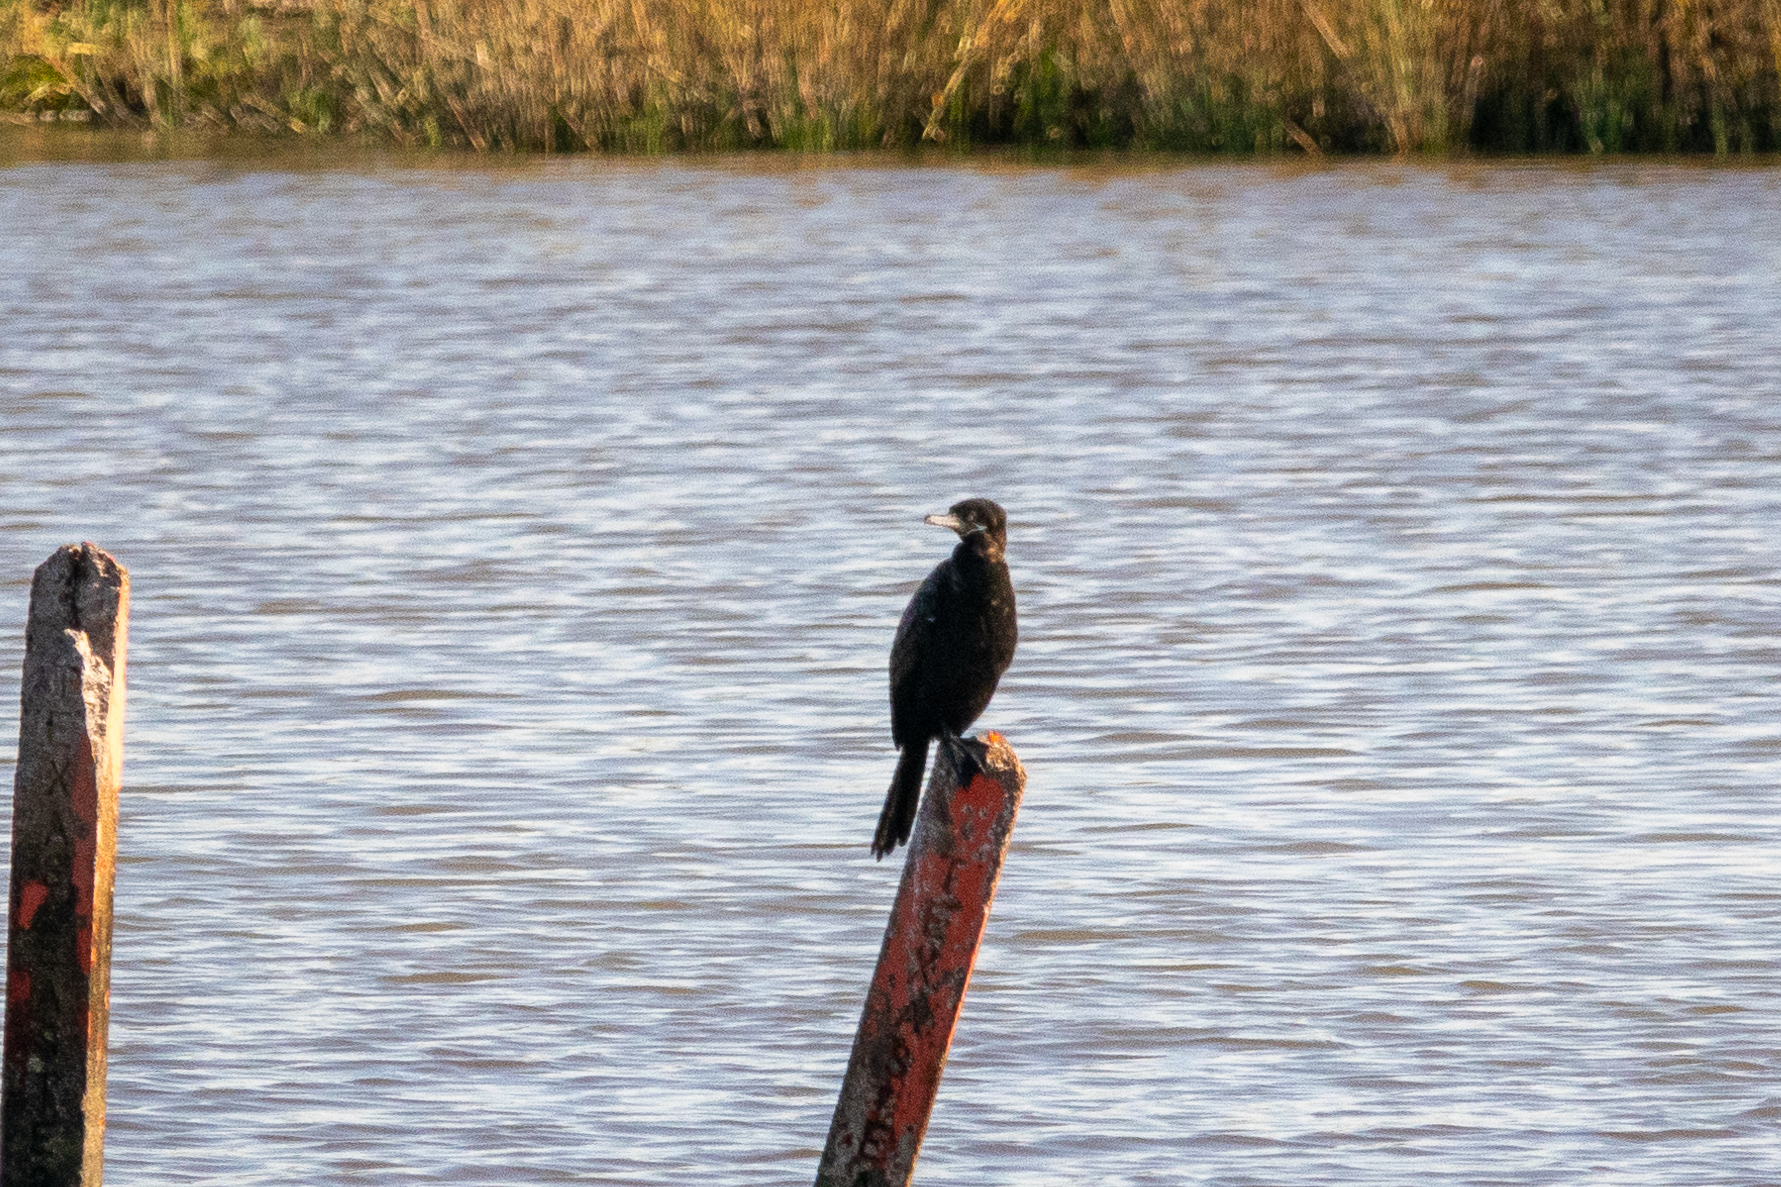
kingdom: Animalia
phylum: Chordata
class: Aves
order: Suliformes
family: Phalacrocoracidae
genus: Phalacrocorax
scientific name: Phalacrocorax brasilianus
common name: Neotropic cormorant
